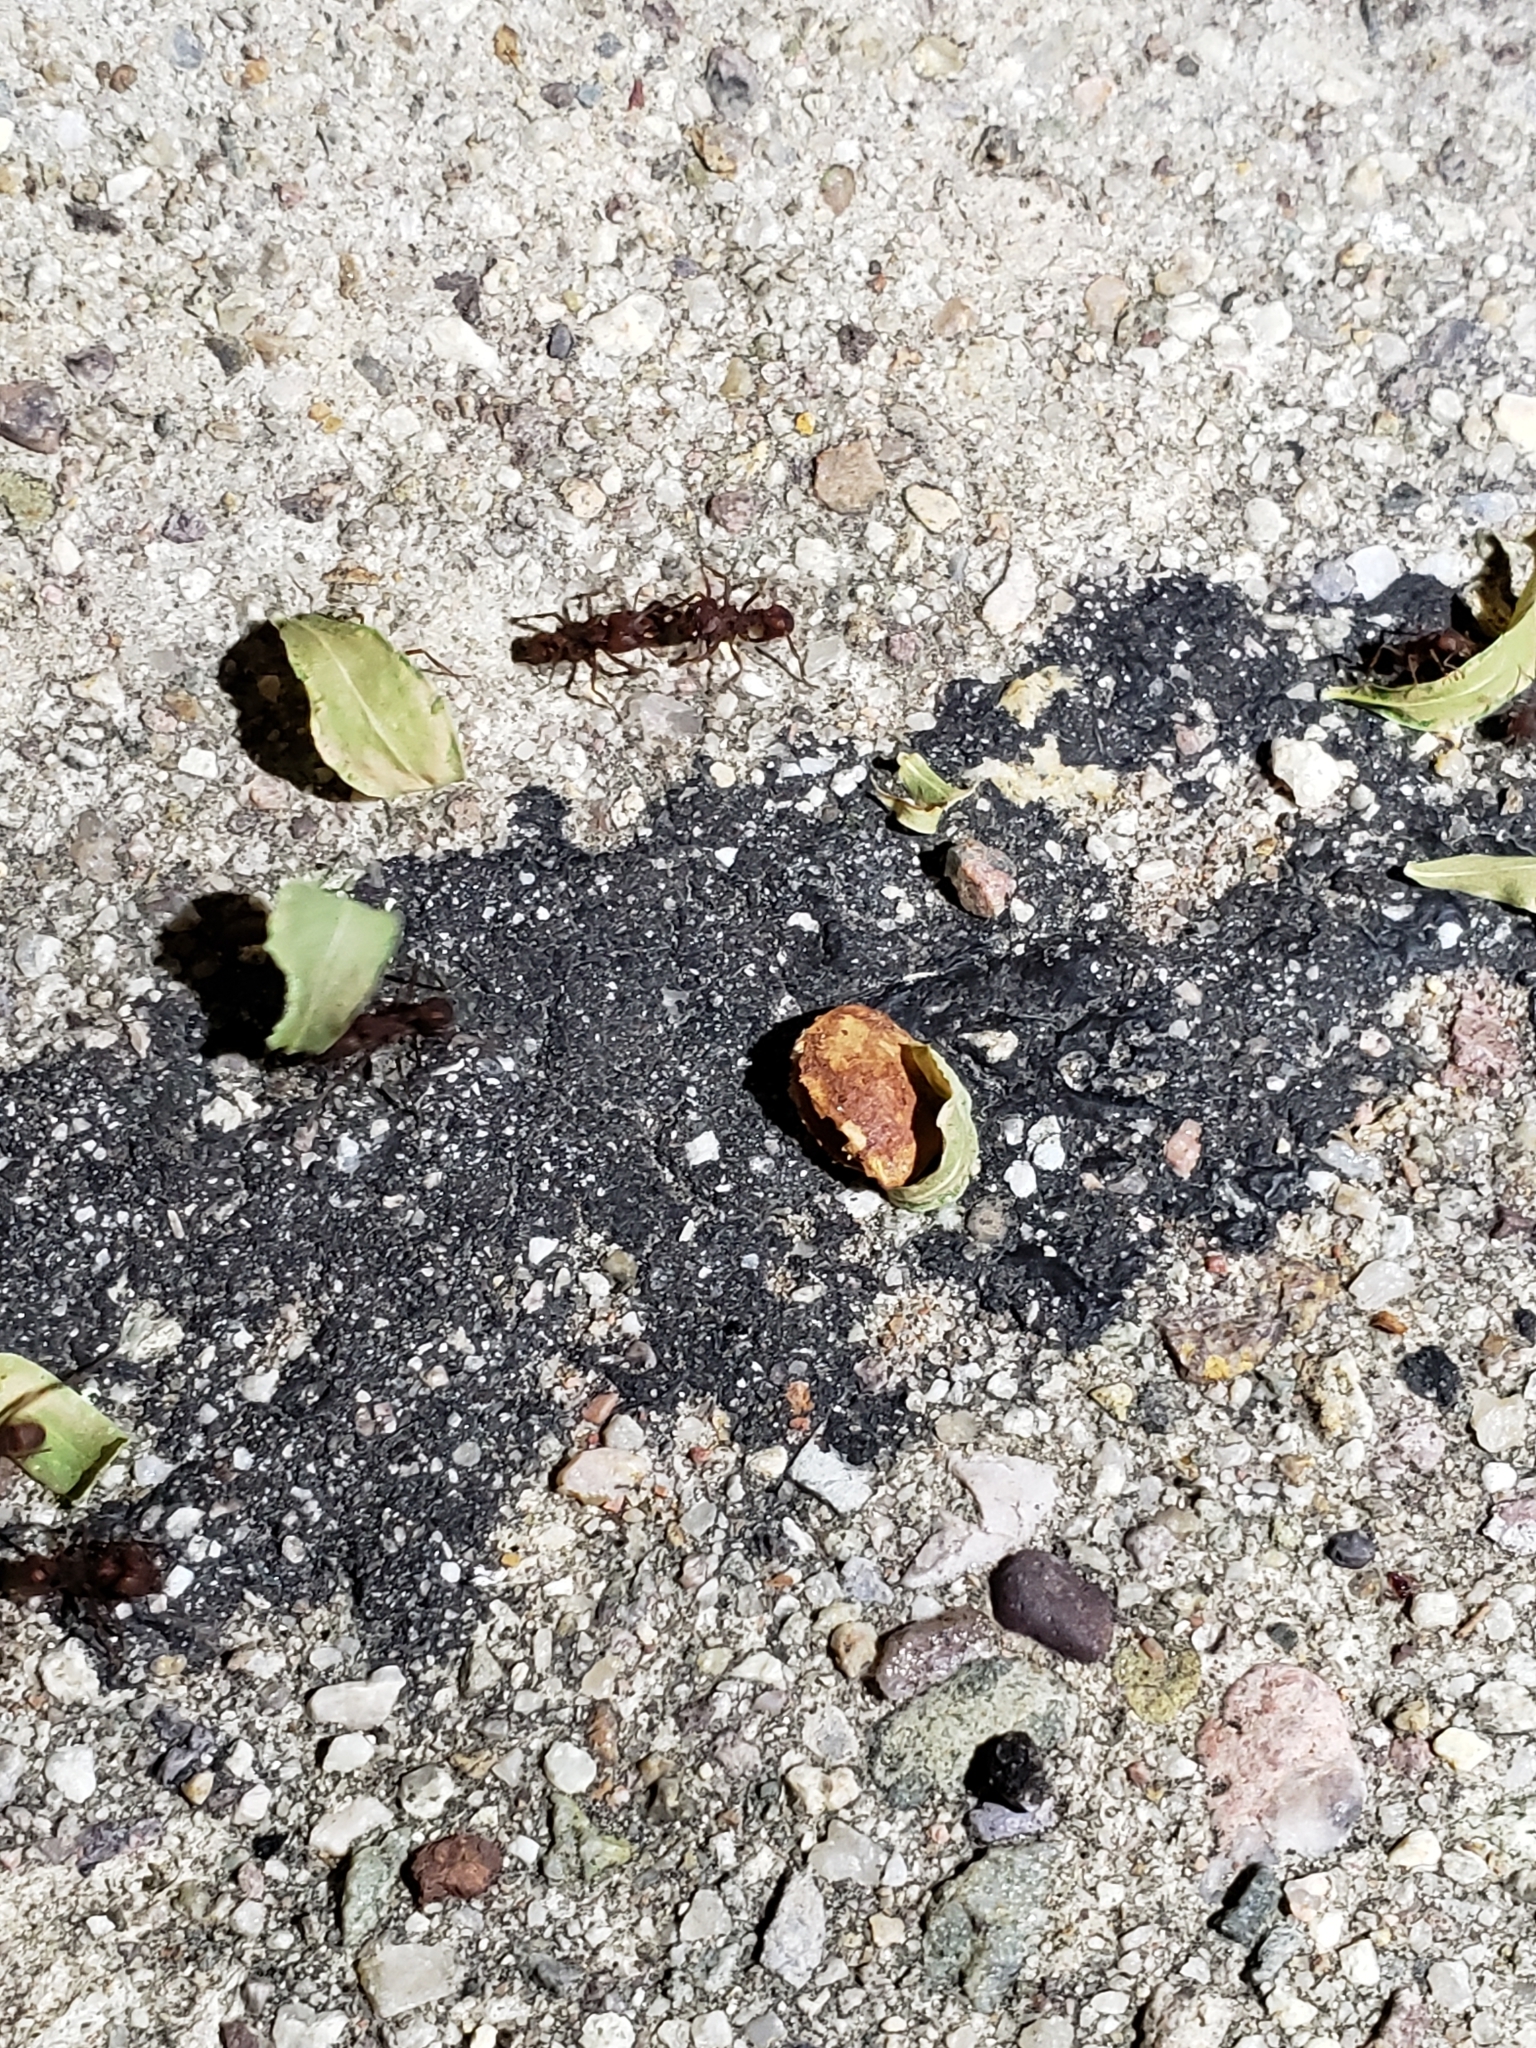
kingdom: Animalia
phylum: Arthropoda
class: Insecta
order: Hymenoptera
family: Formicidae
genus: Acromyrmex
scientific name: Acromyrmex versicolor
